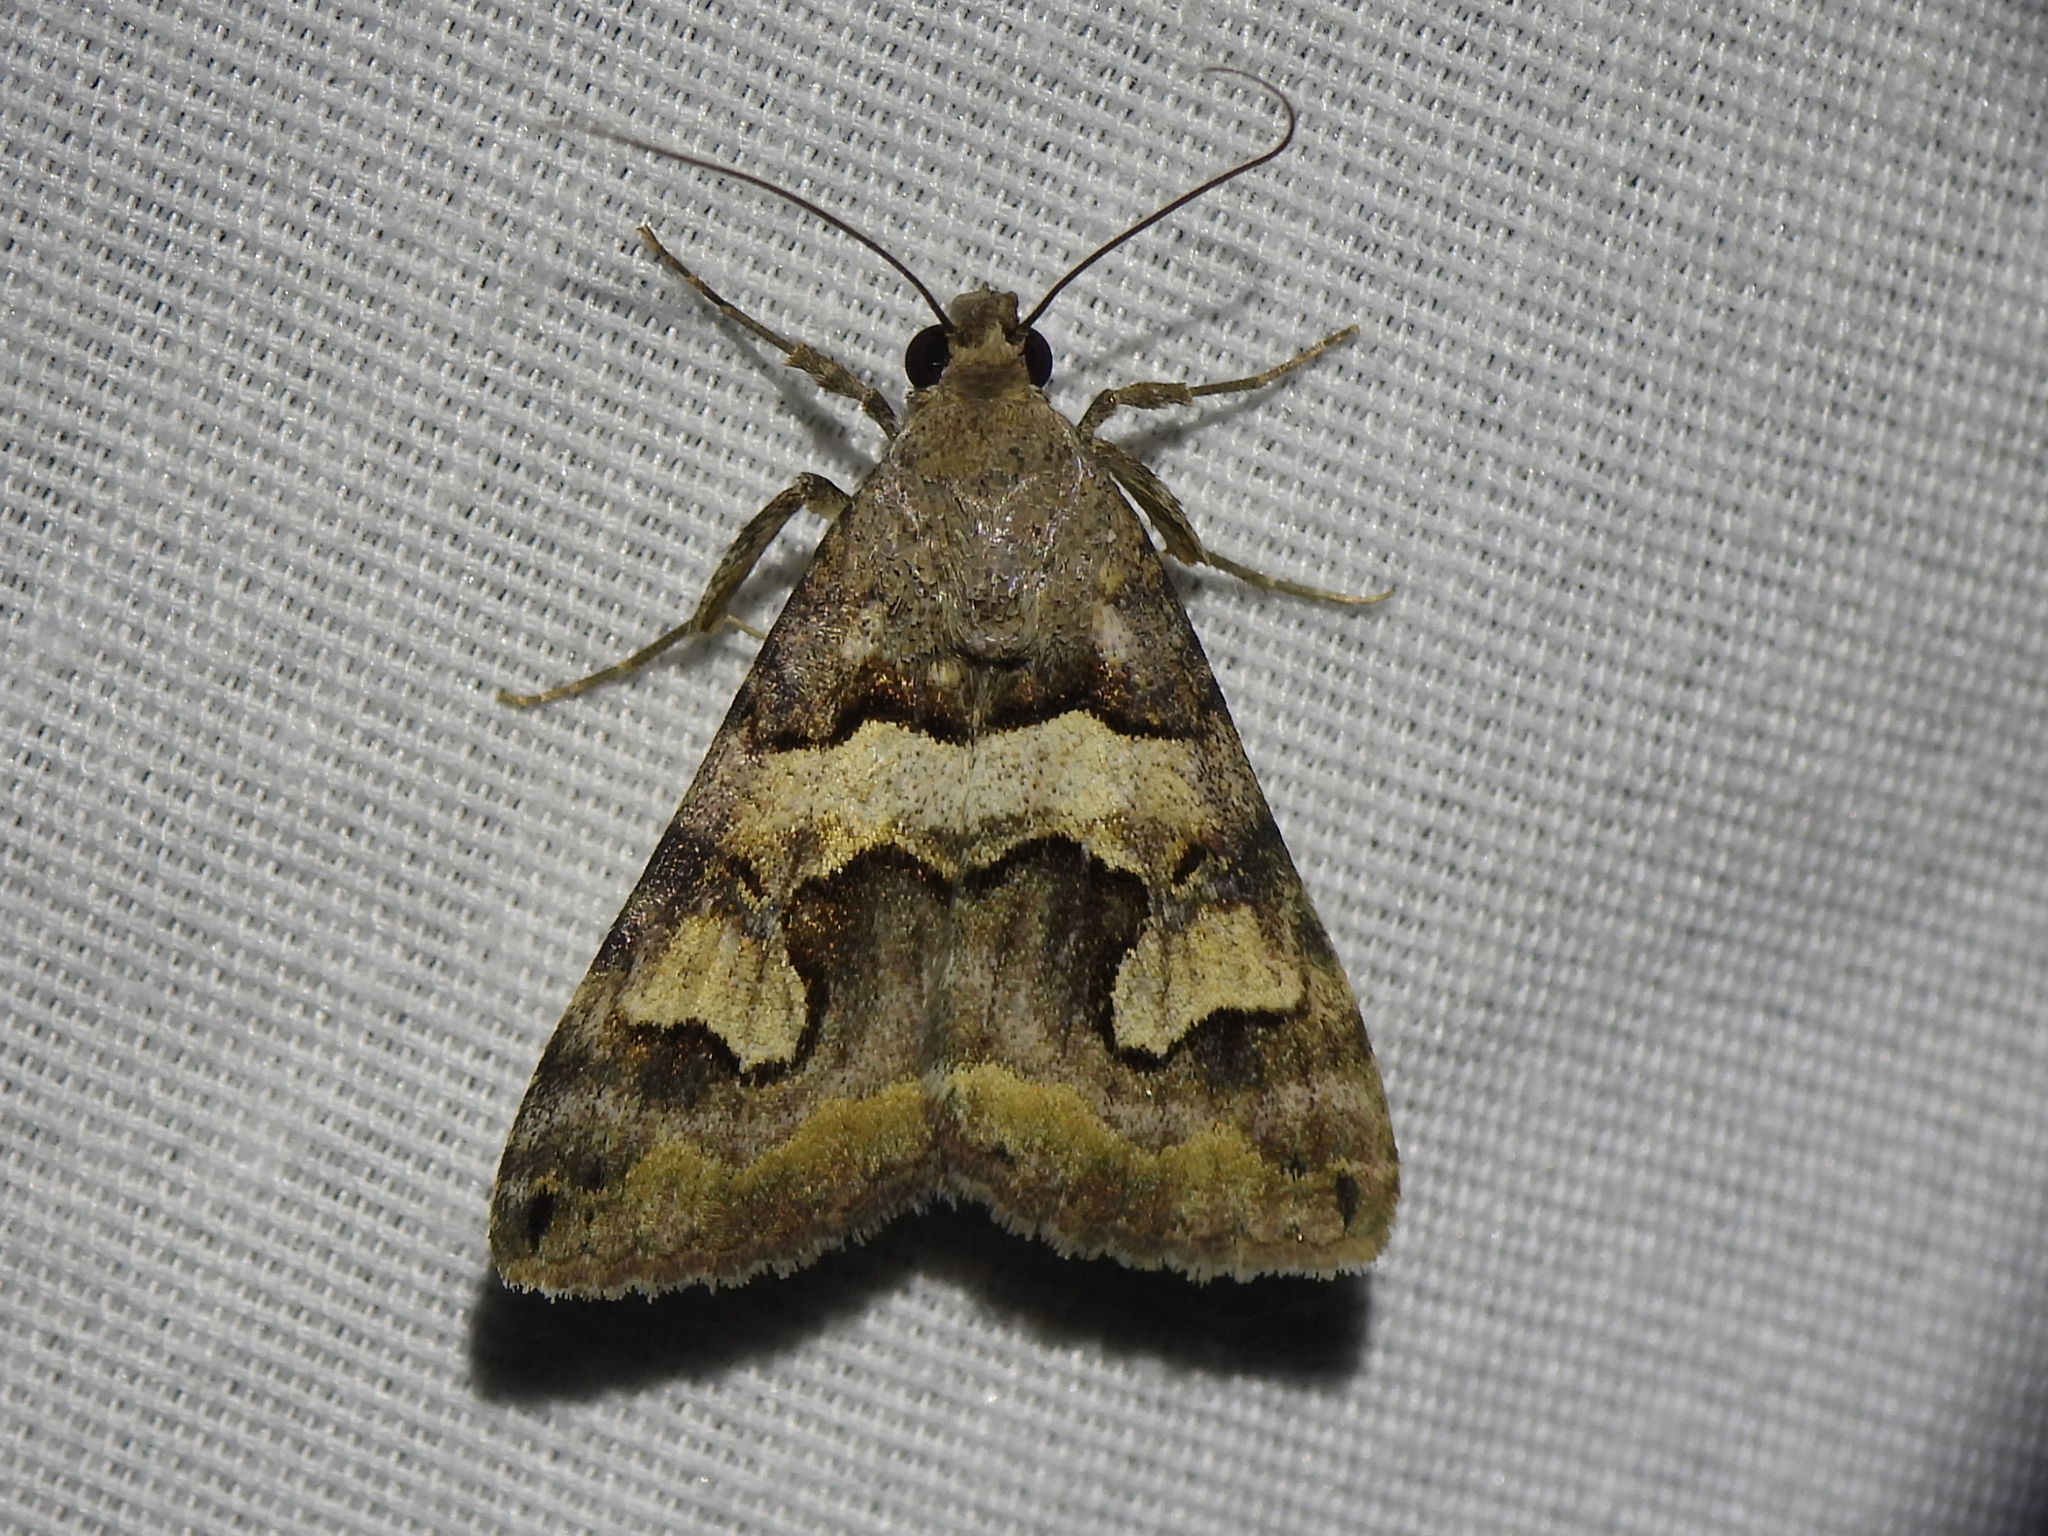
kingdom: Animalia
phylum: Arthropoda
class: Insecta
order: Lepidoptera
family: Erebidae
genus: Bulia
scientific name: Bulia deducta
